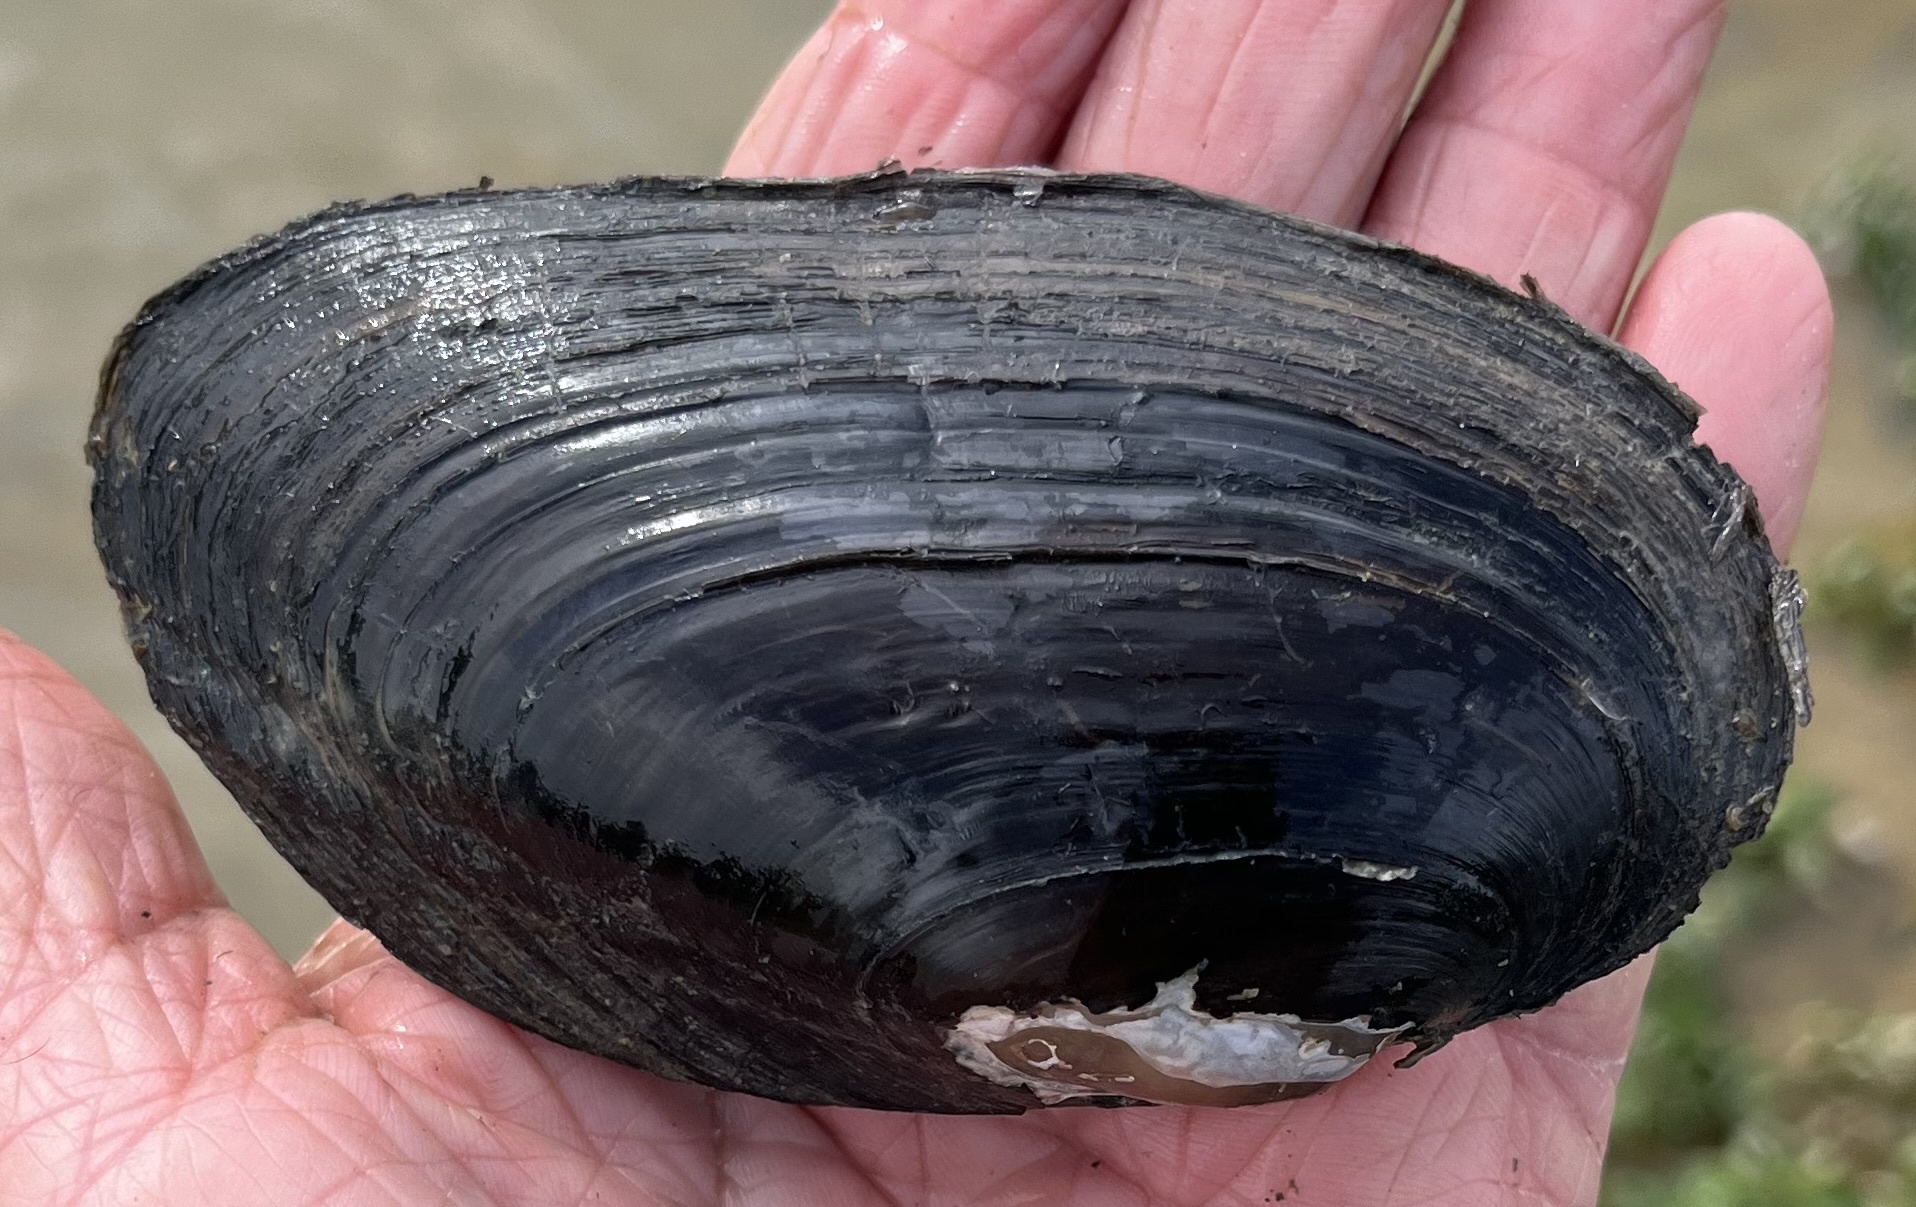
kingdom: Animalia
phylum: Mollusca
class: Bivalvia
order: Unionida
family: Unionidae
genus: Uniomerus
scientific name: Uniomerus tetralasmus
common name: Pondhorn
